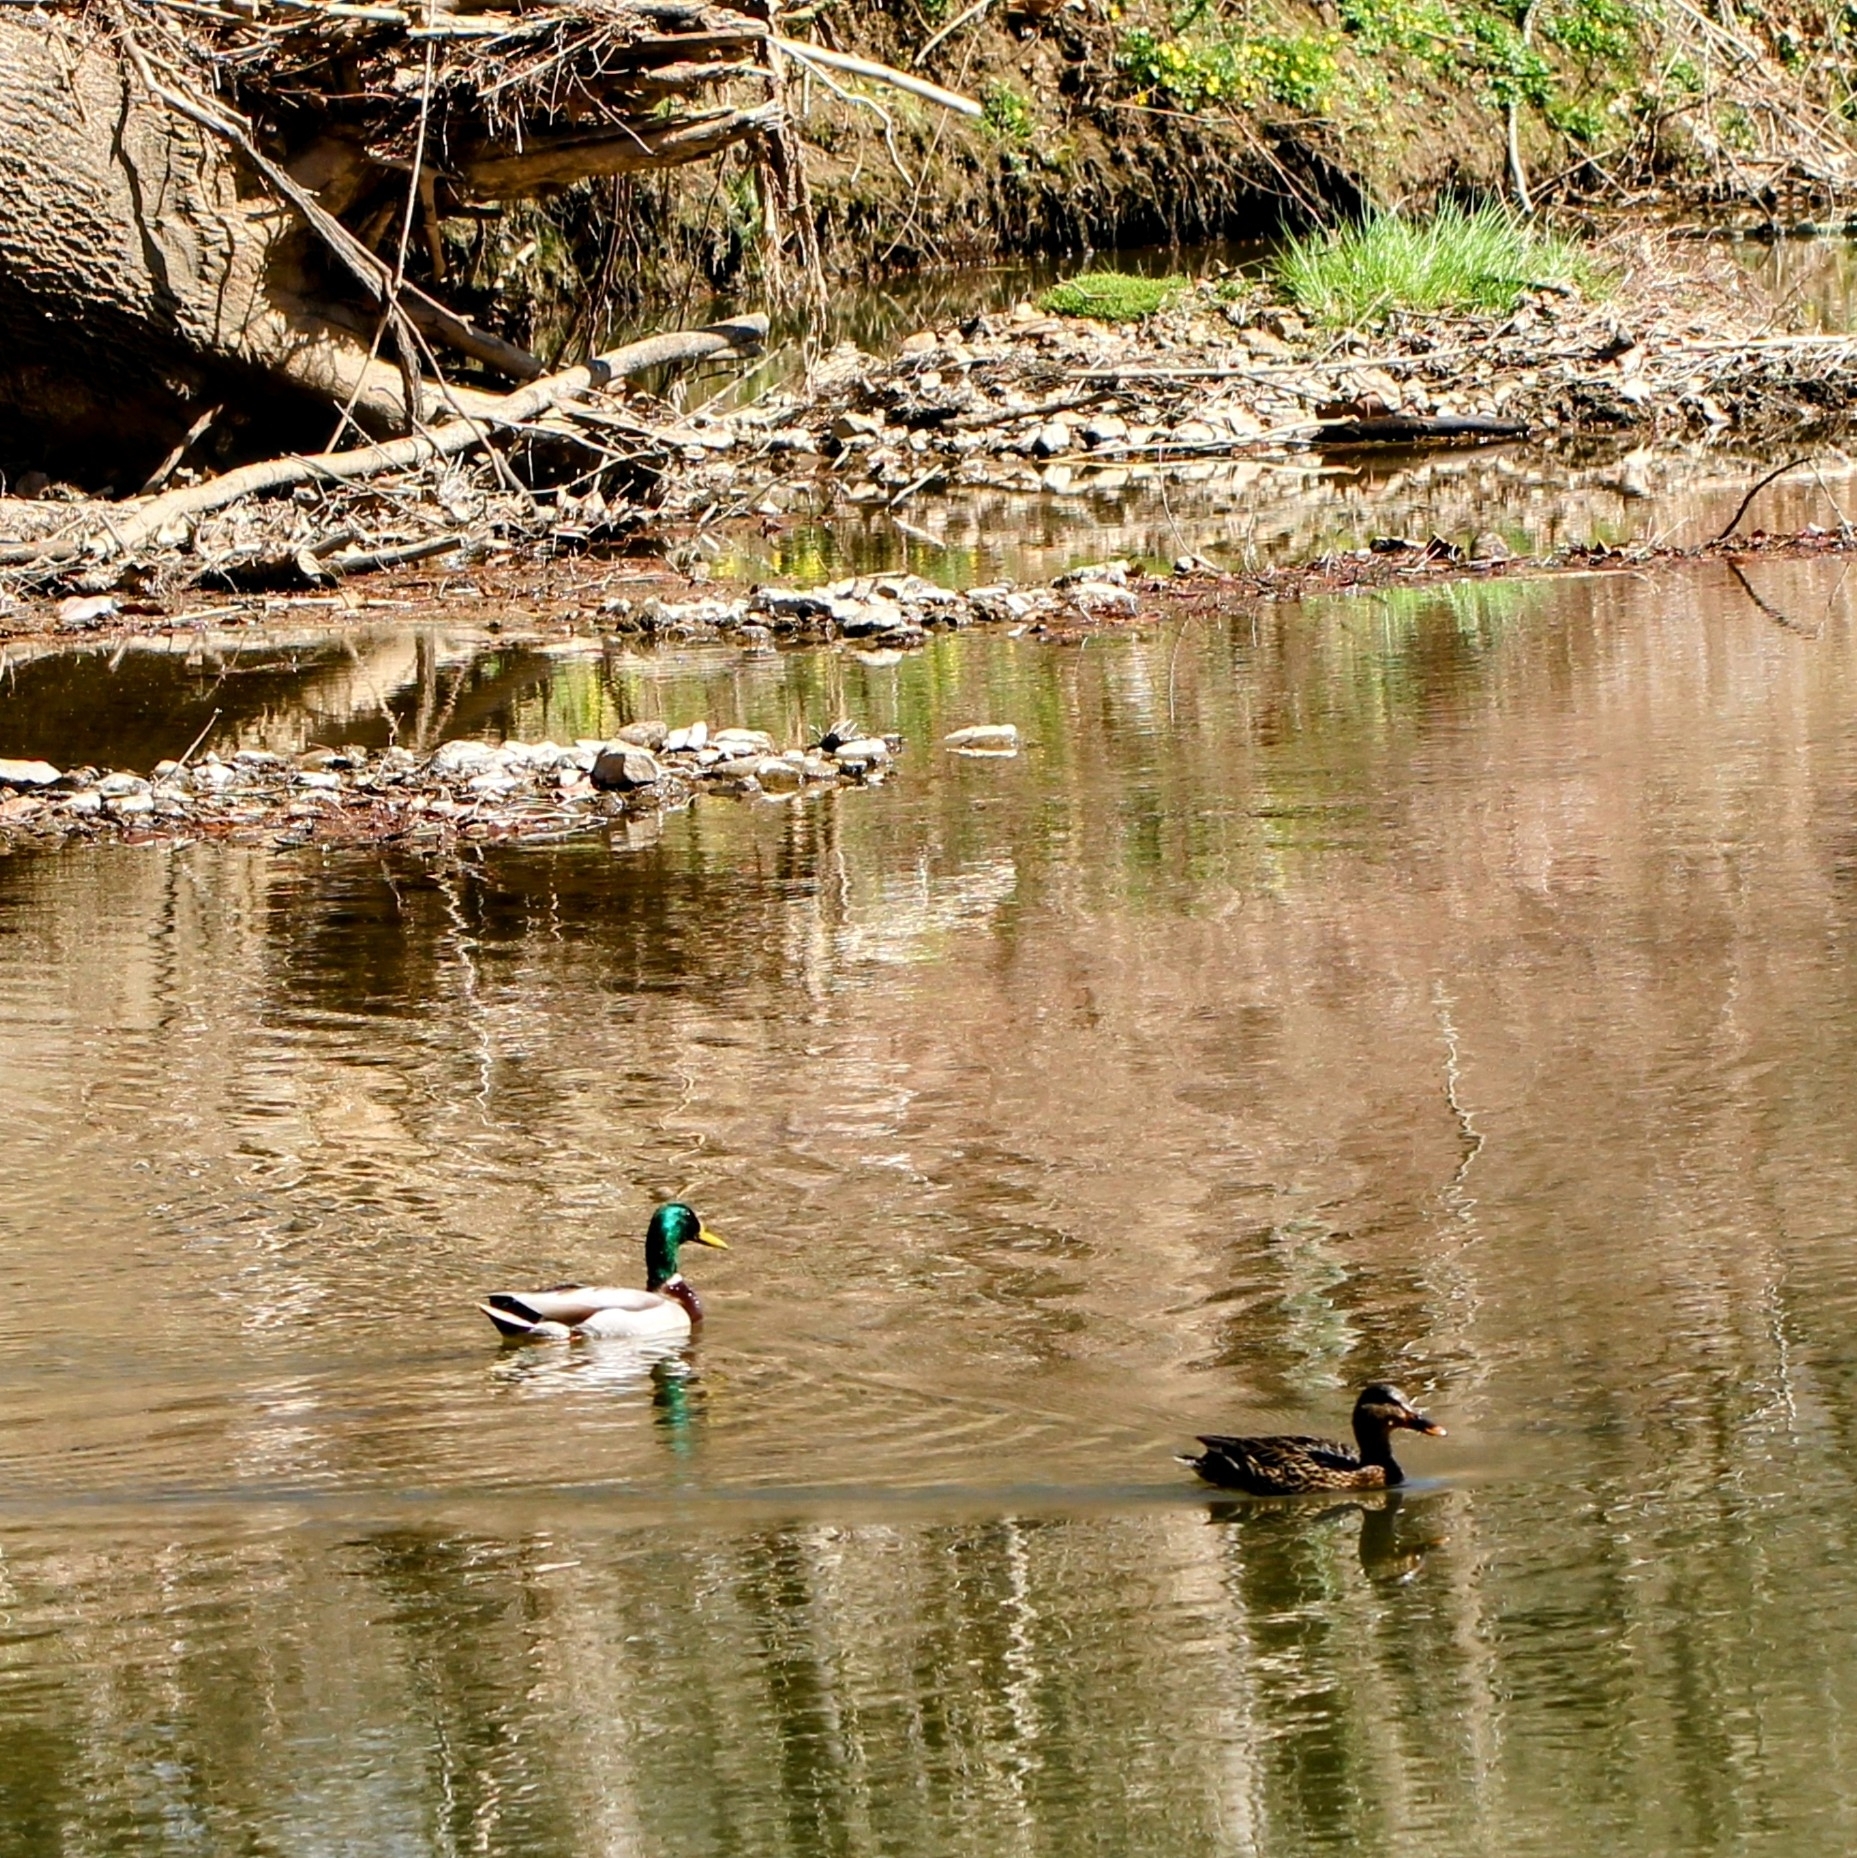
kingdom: Animalia
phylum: Chordata
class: Aves
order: Anseriformes
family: Anatidae
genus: Anas
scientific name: Anas platyrhynchos
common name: Mallard
